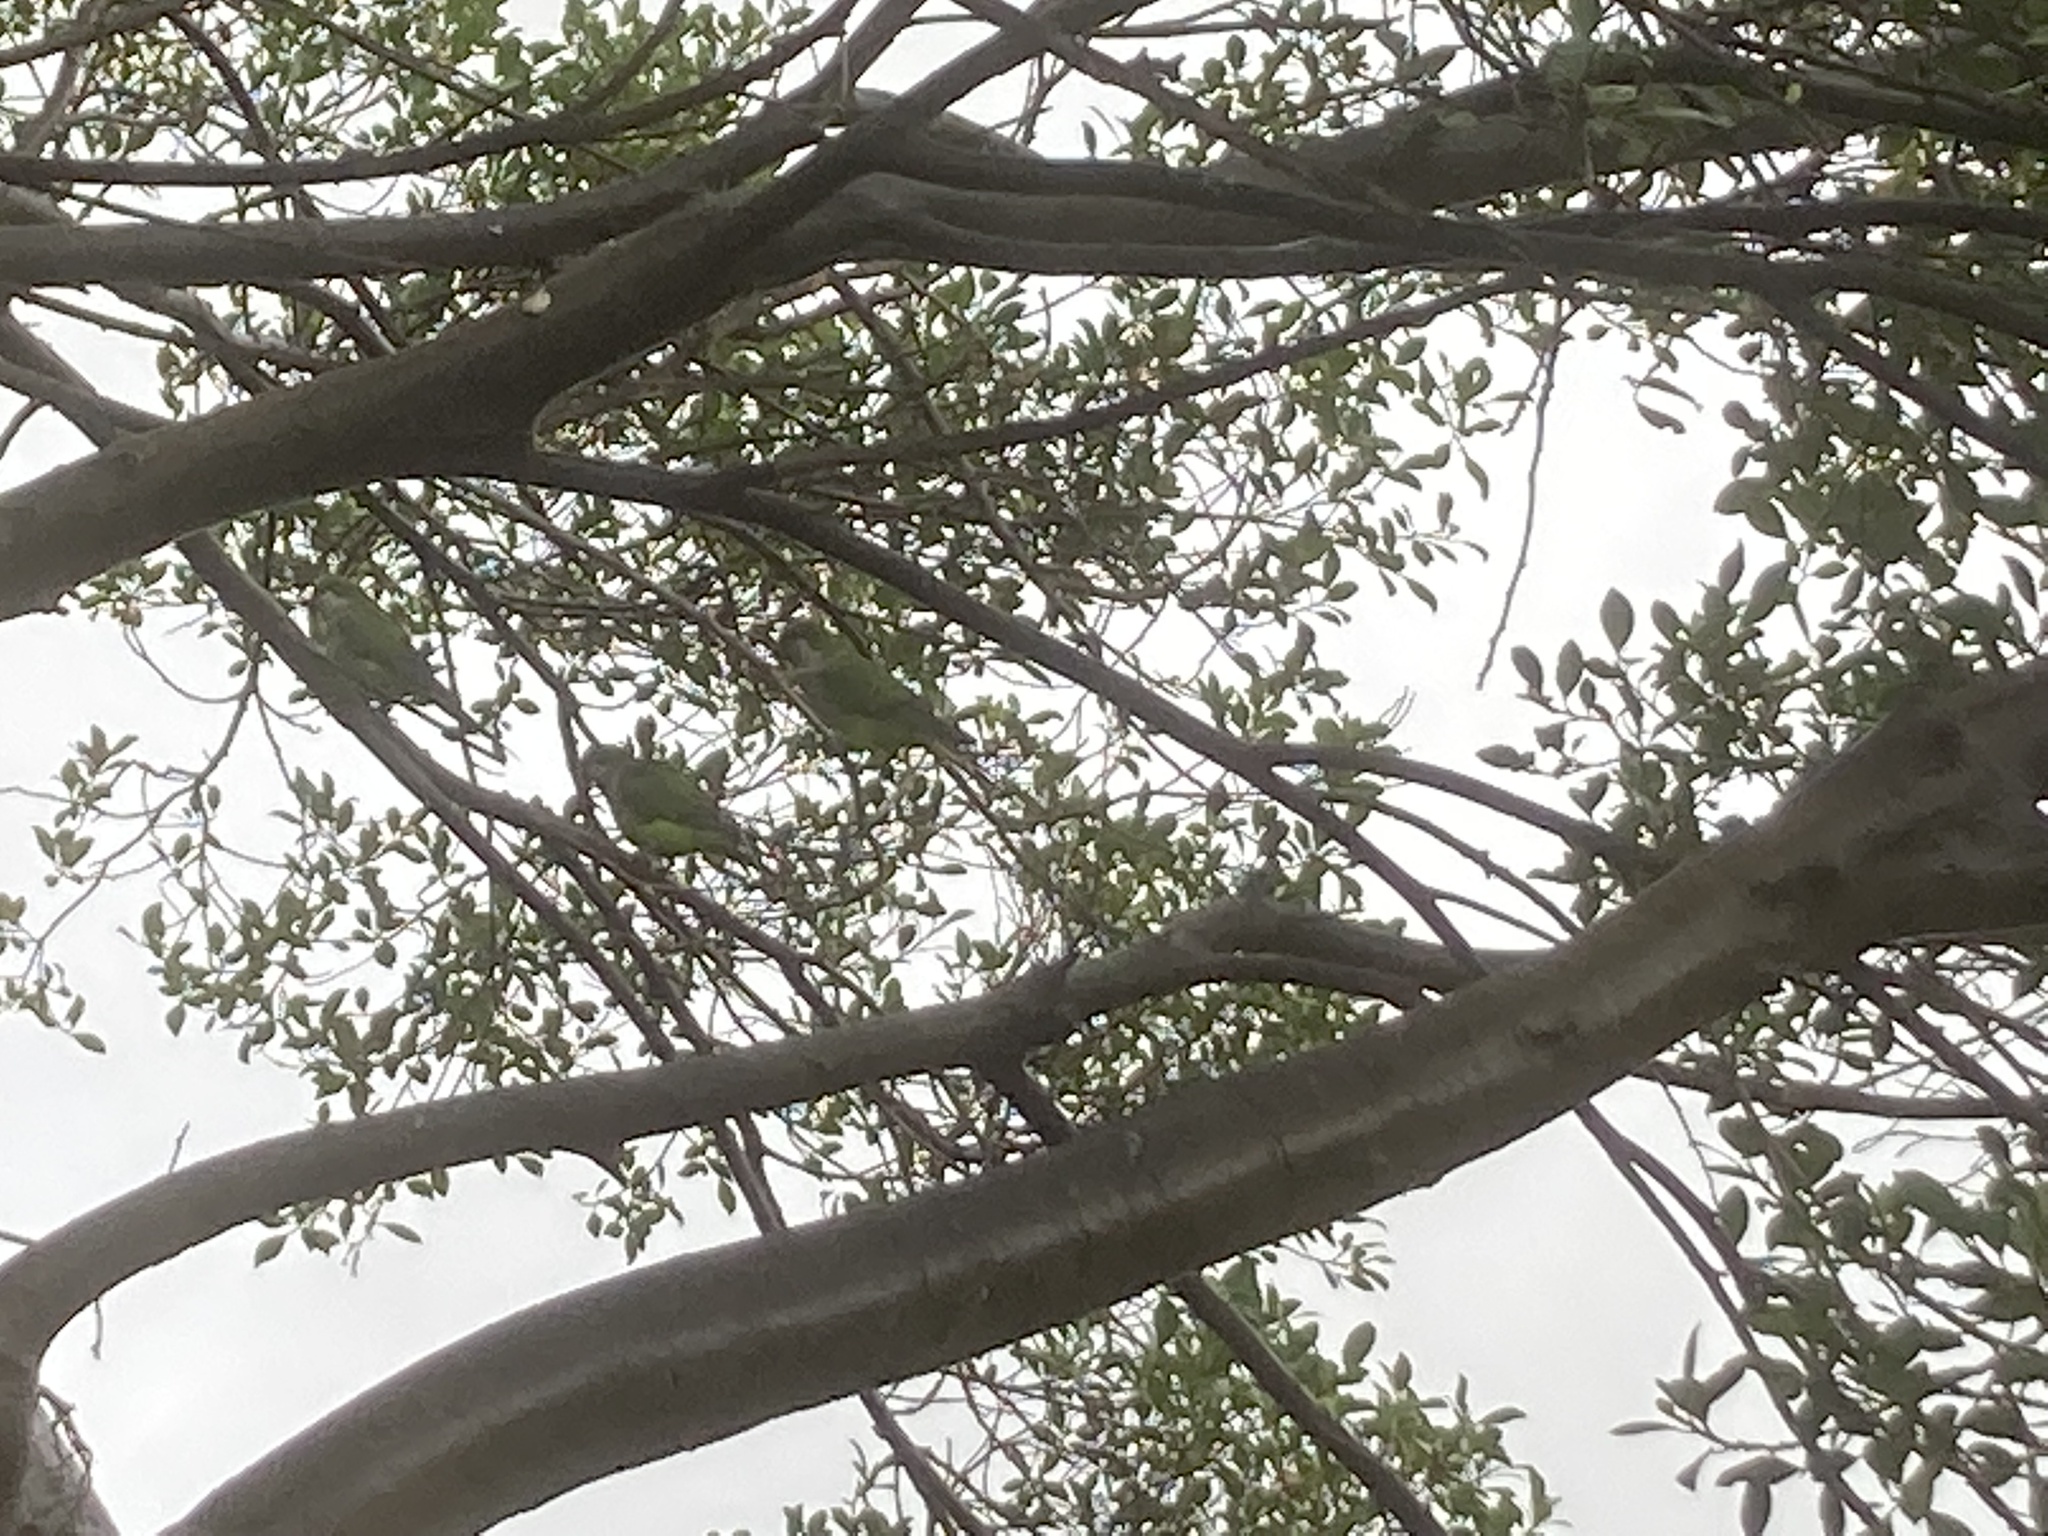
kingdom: Animalia
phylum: Chordata
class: Aves
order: Psittaciformes
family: Psittacidae
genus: Myiopsitta
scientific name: Myiopsitta monachus
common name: Monk parakeet
